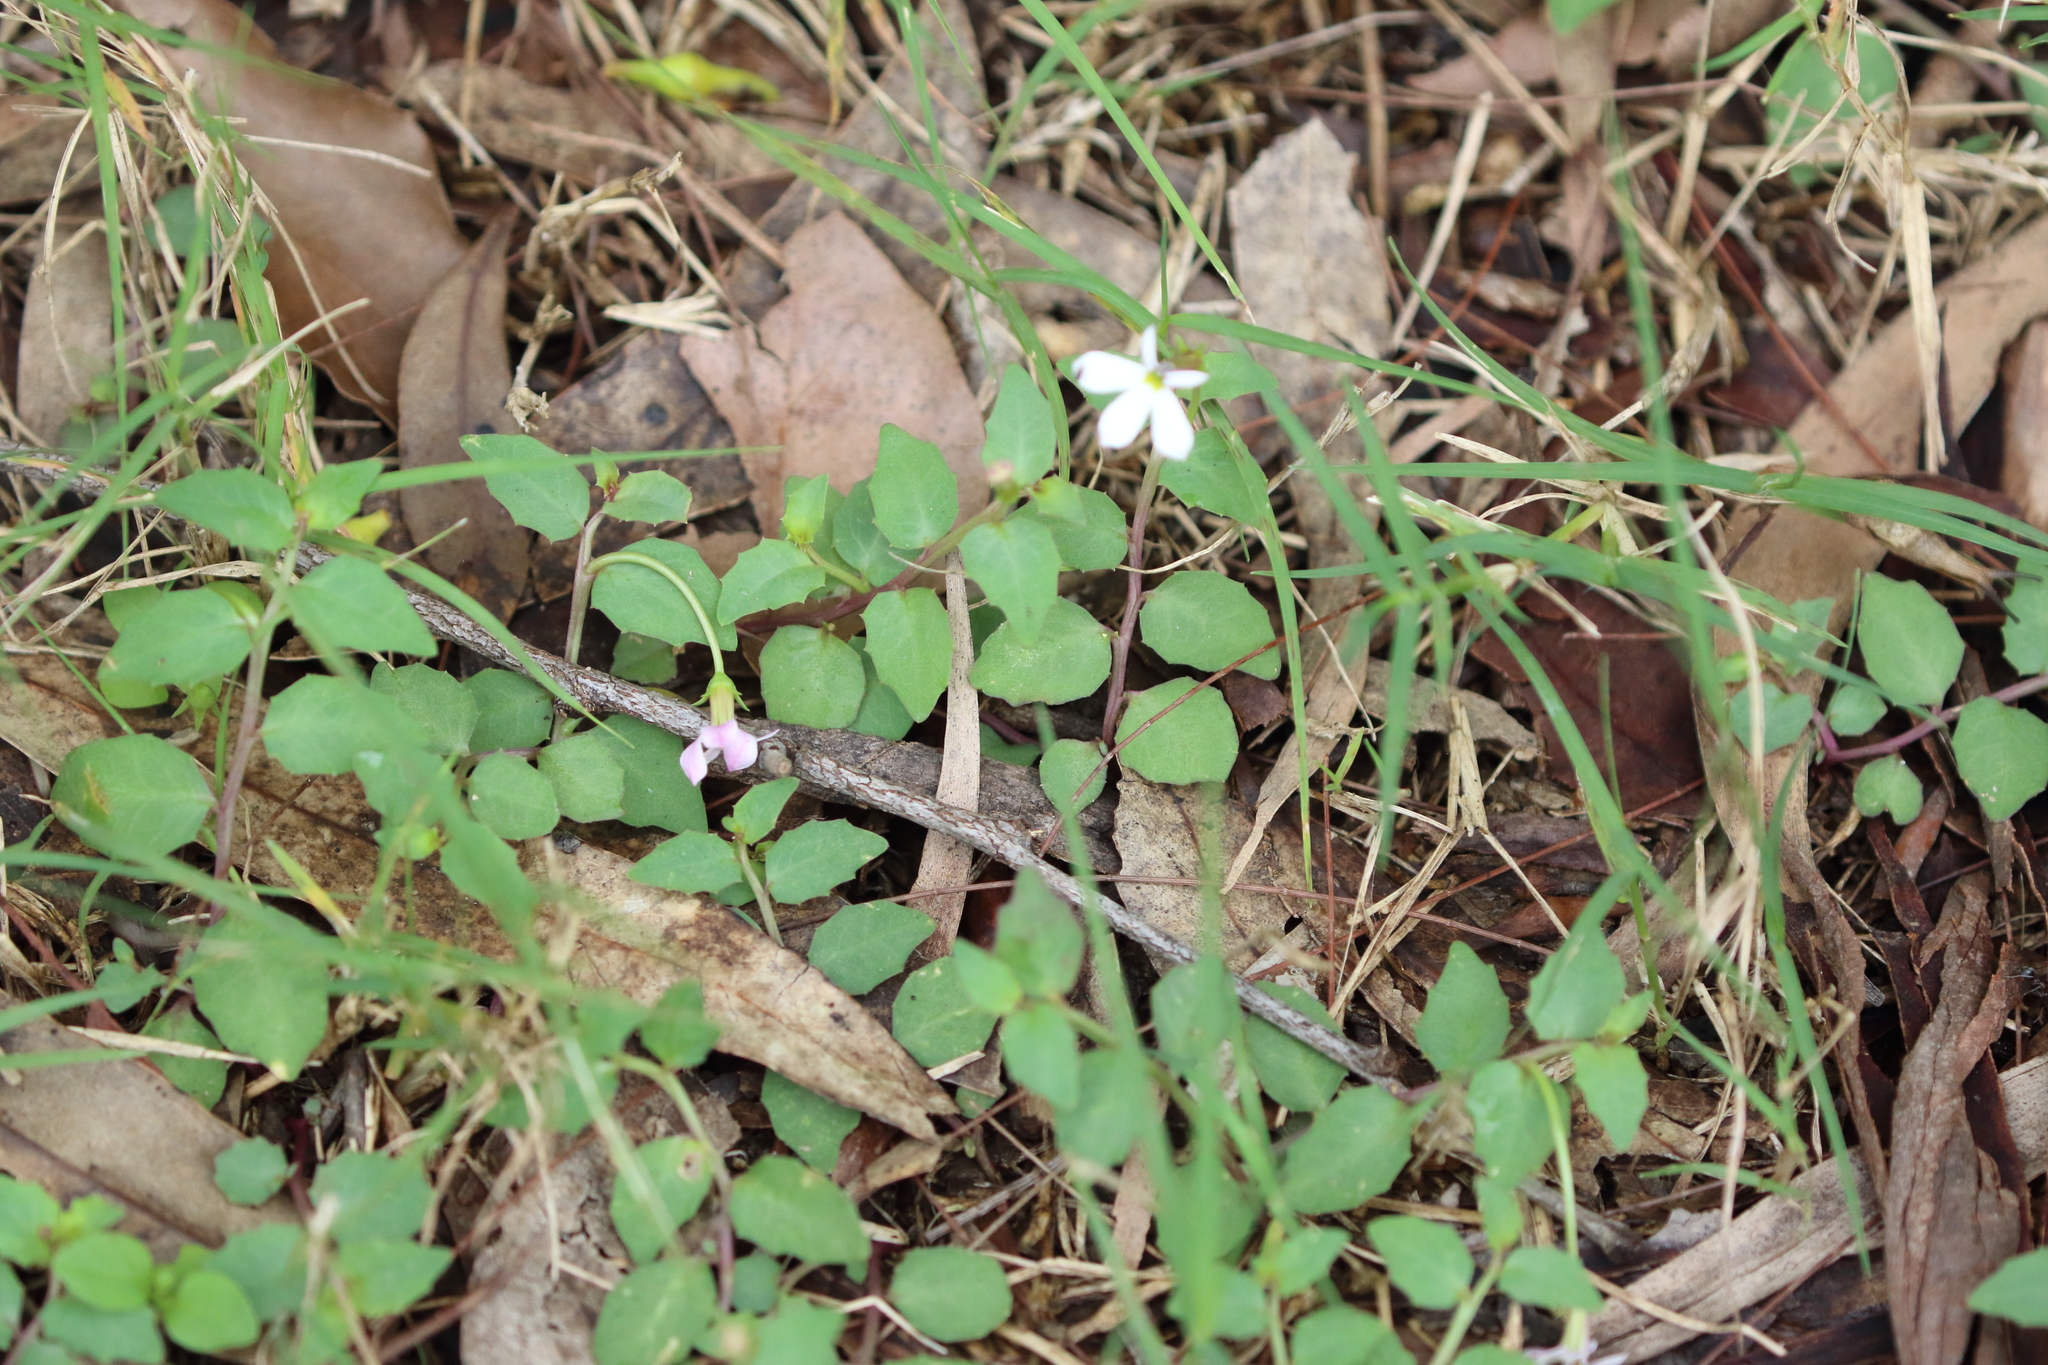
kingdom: Plantae
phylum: Tracheophyta
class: Magnoliopsida
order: Asterales
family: Campanulaceae
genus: Lobelia
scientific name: Lobelia purpurascens
